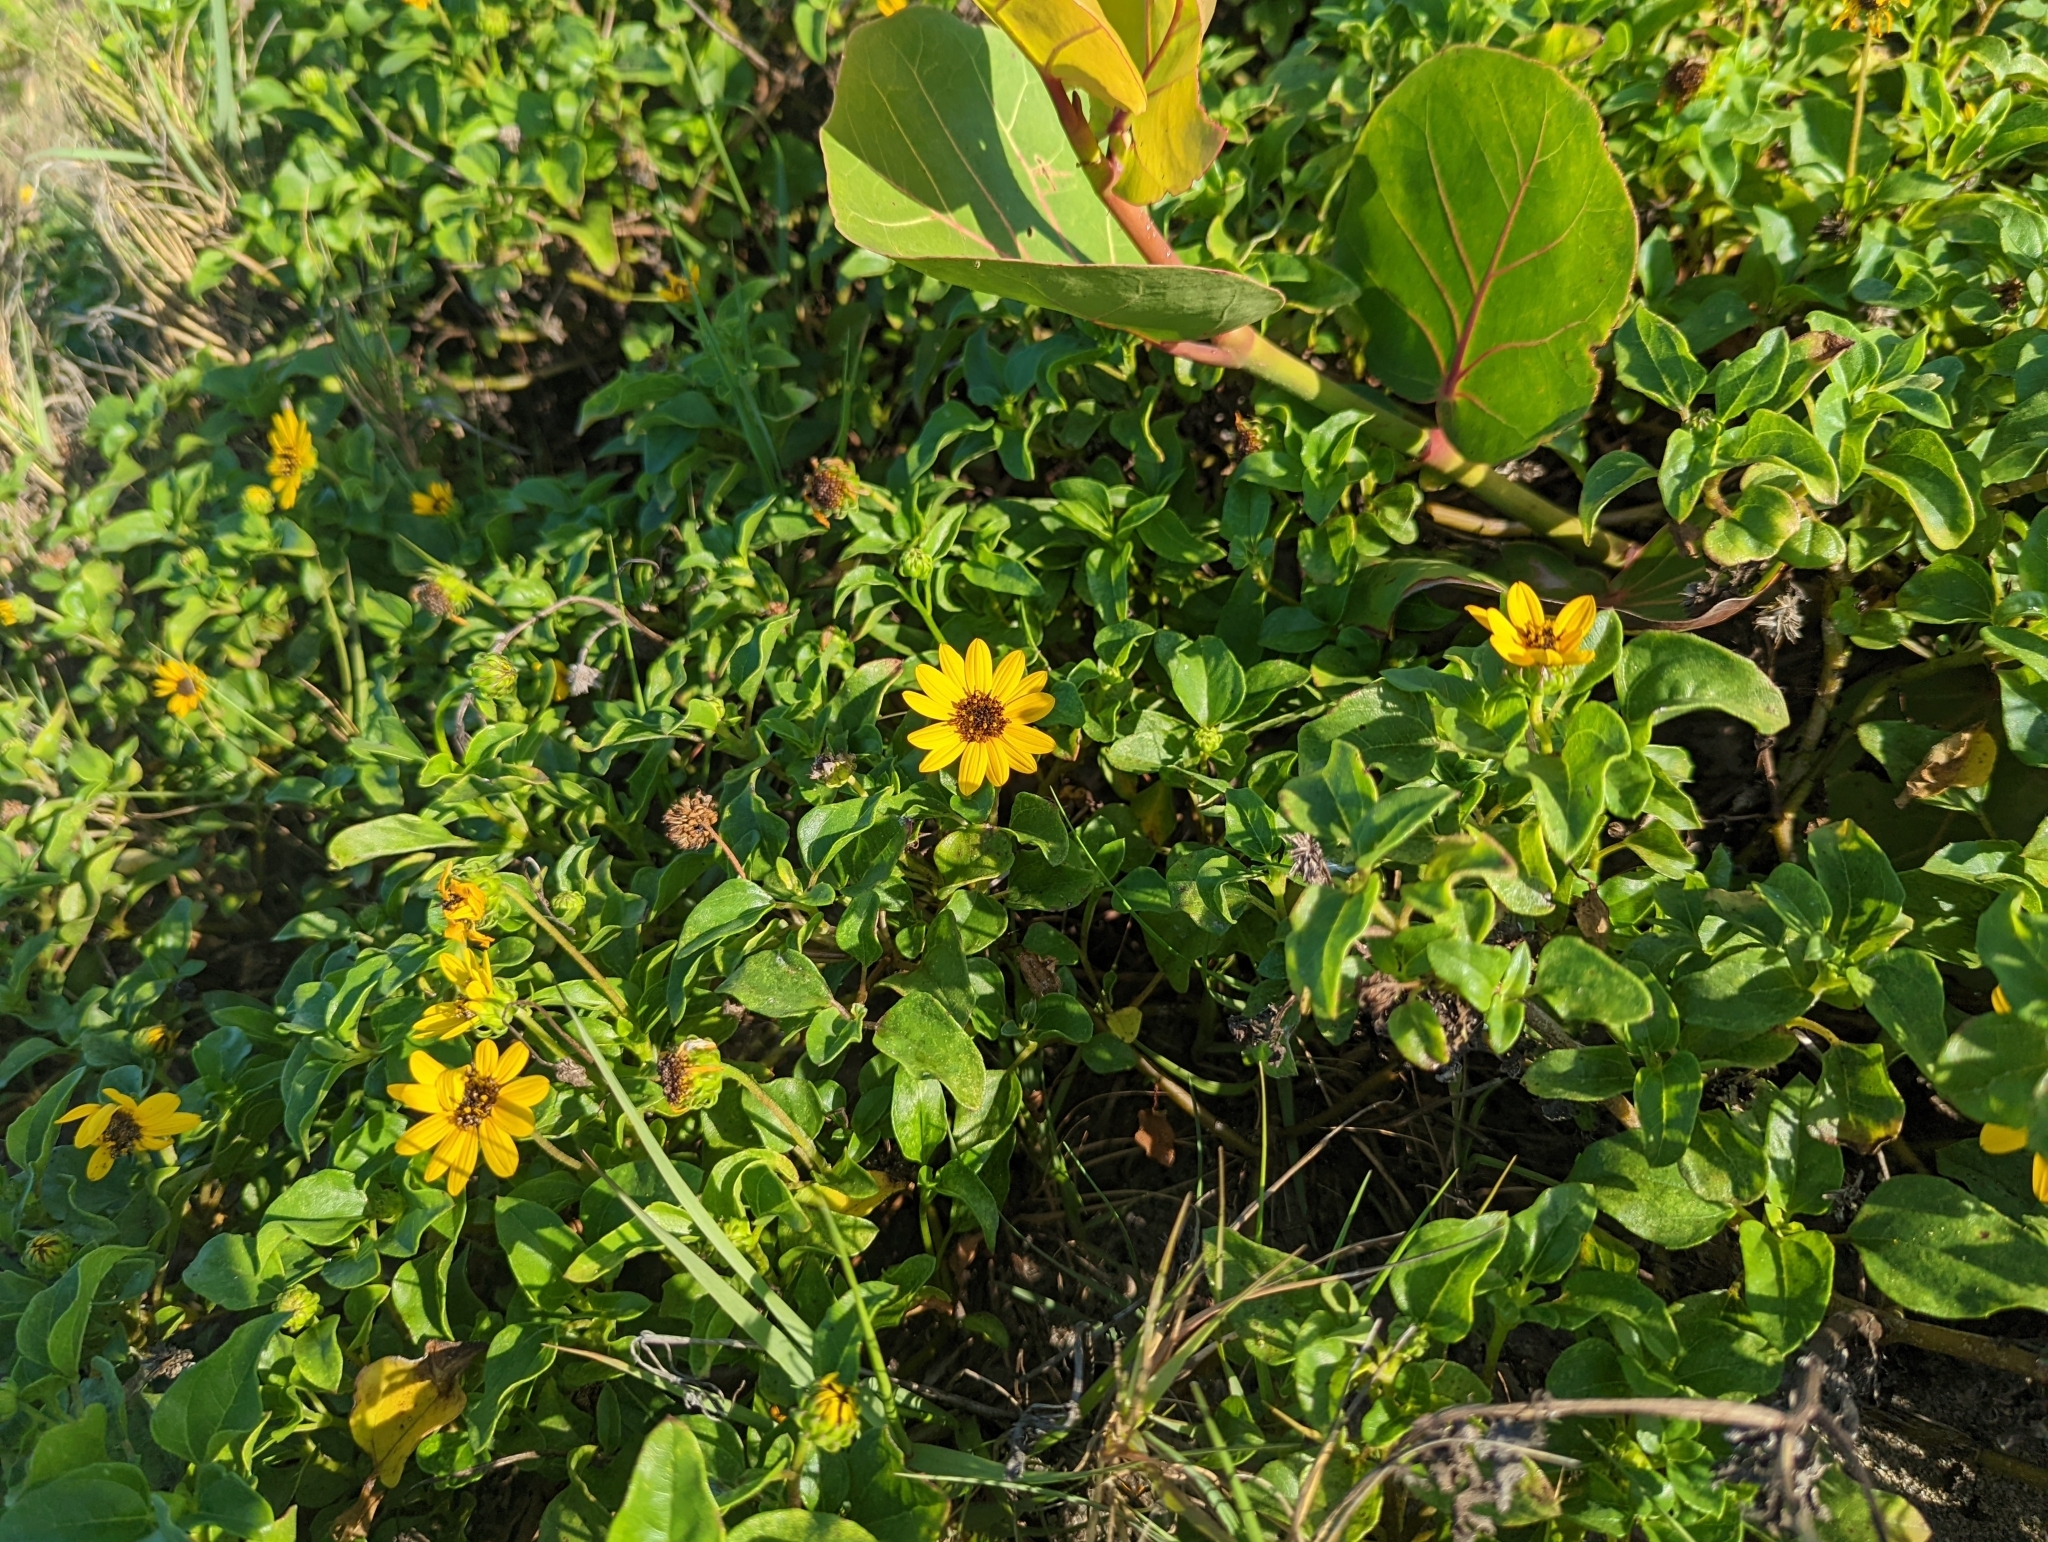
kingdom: Plantae
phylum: Tracheophyta
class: Magnoliopsida
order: Asterales
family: Asteraceae
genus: Helianthus
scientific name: Helianthus debilis
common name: Weak sunflower
